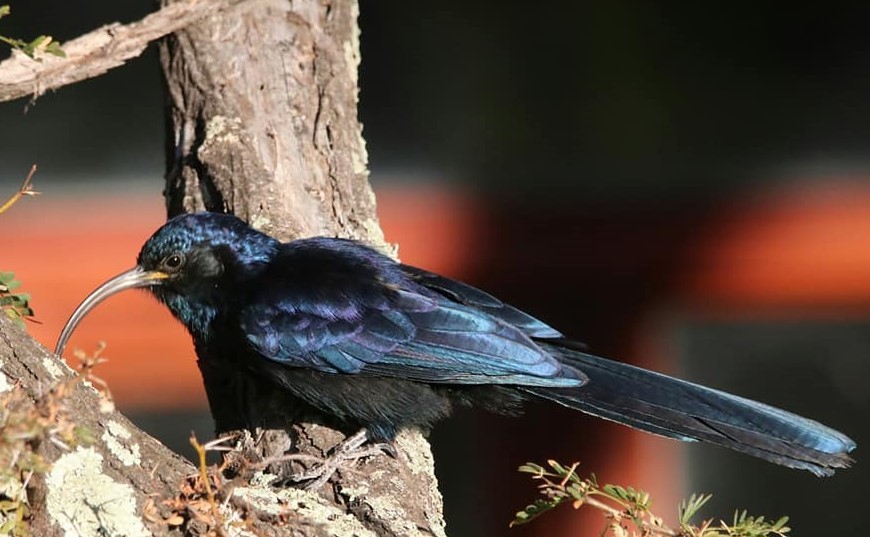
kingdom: Animalia
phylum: Chordata
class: Aves
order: Bucerotiformes
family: Phoeniculidae
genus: Rhinopomastus
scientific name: Rhinopomastus cyanomelas
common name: Common scimitarbill
